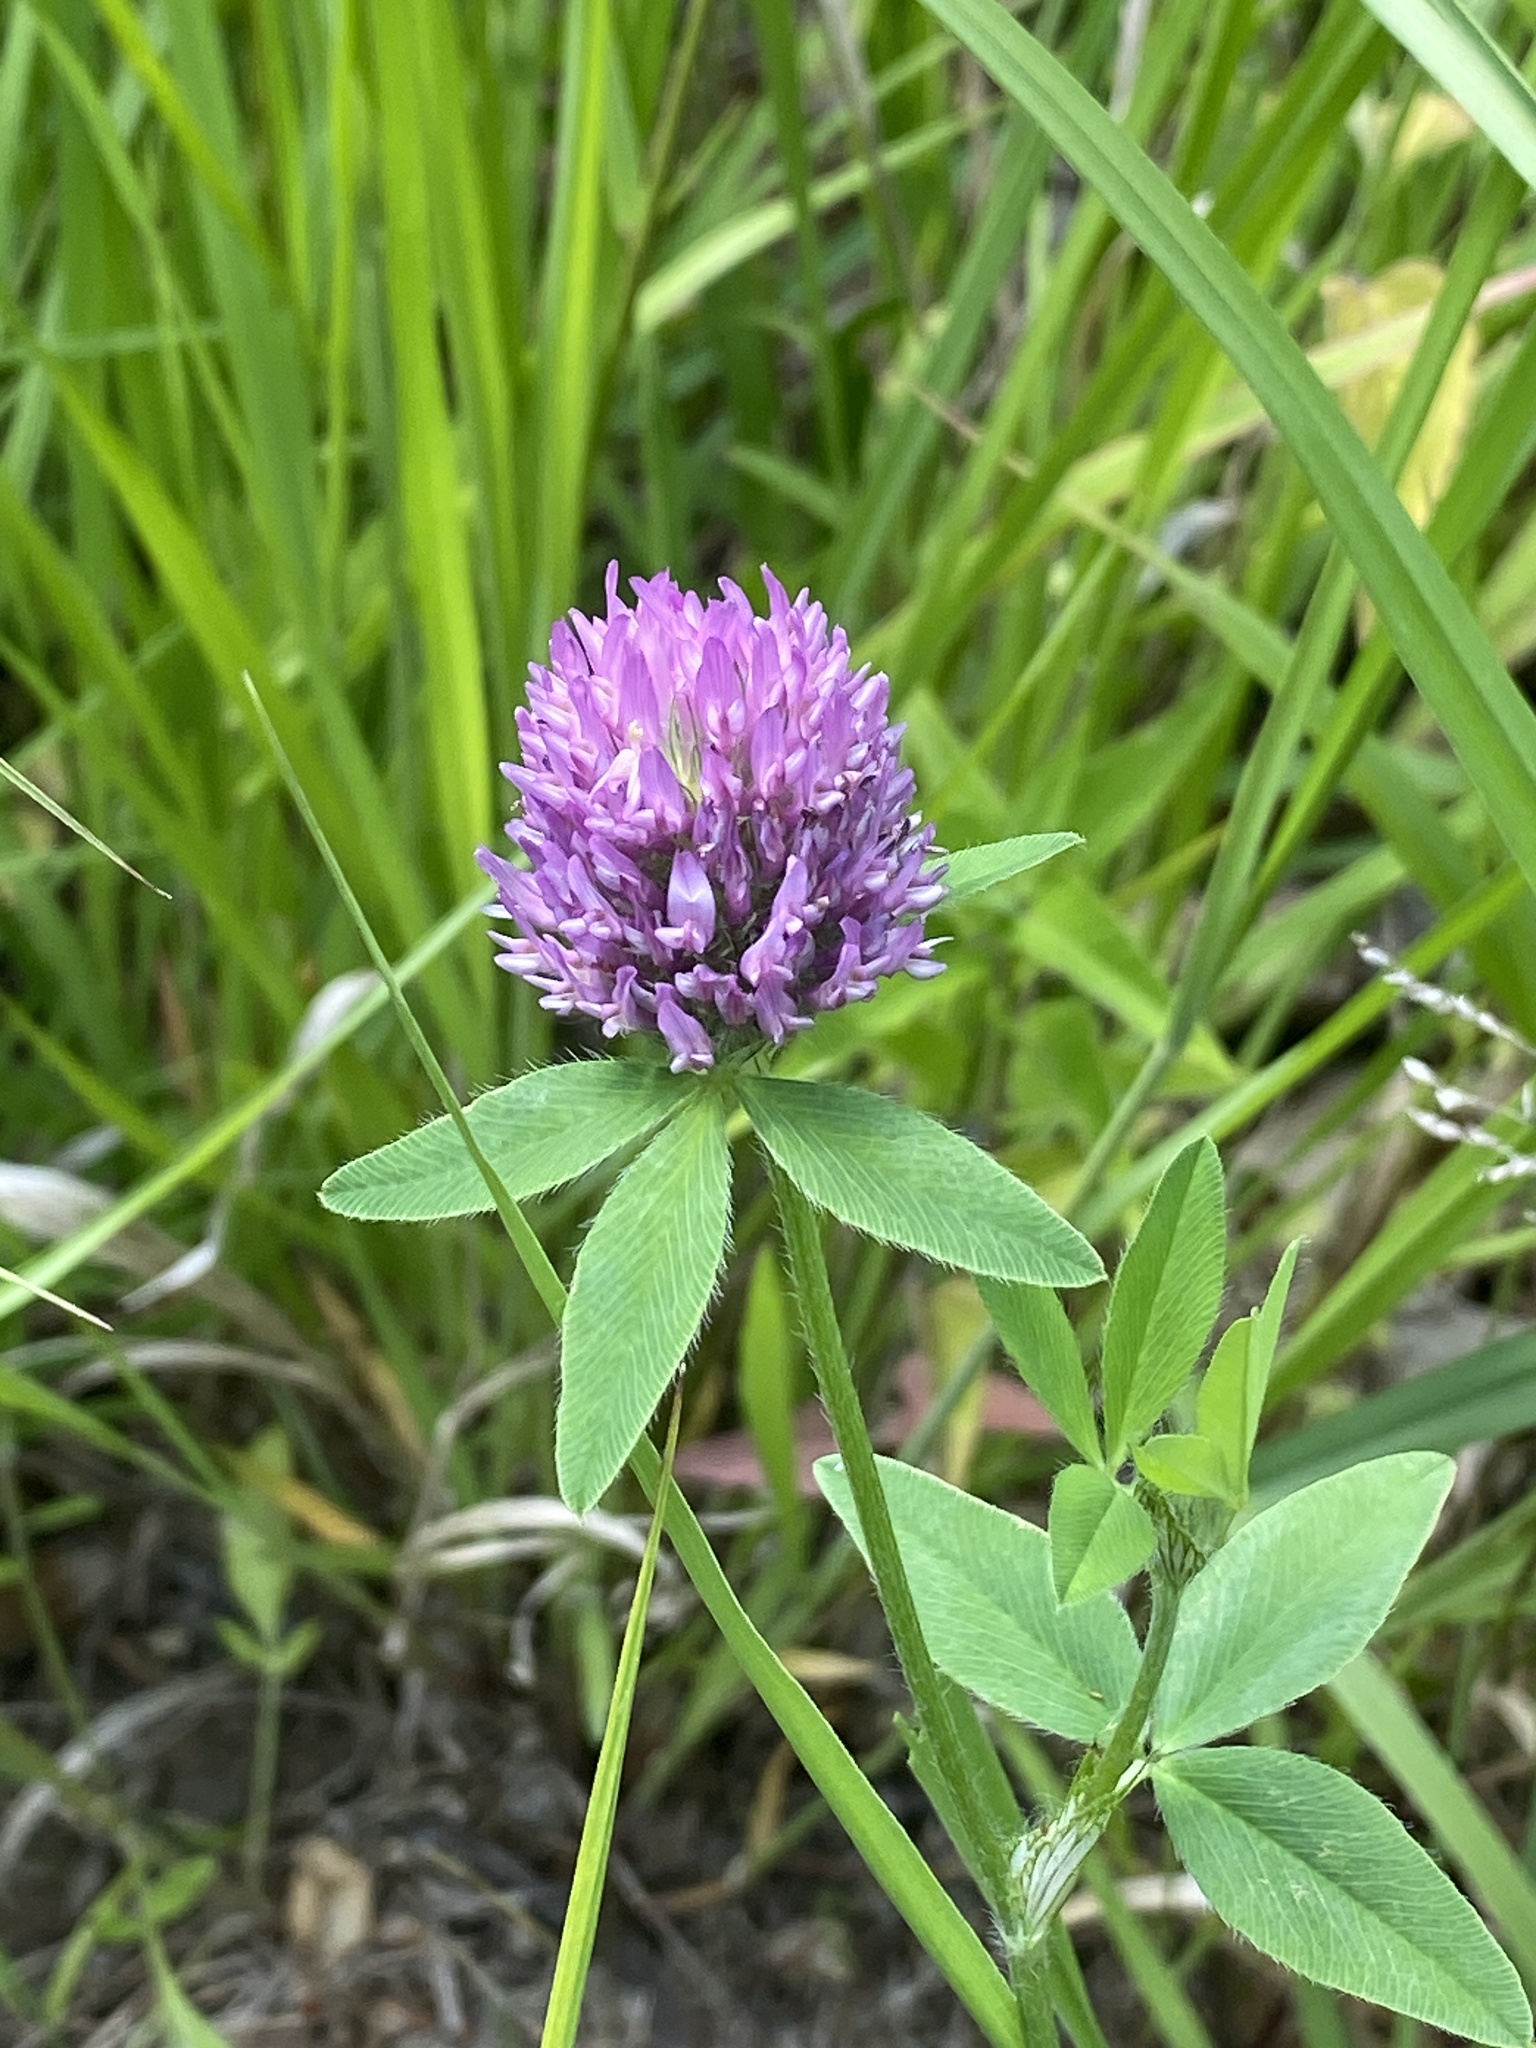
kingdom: Plantae
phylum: Tracheophyta
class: Magnoliopsida
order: Fabales
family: Fabaceae
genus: Trifolium
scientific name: Trifolium pratense
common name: Red clover
